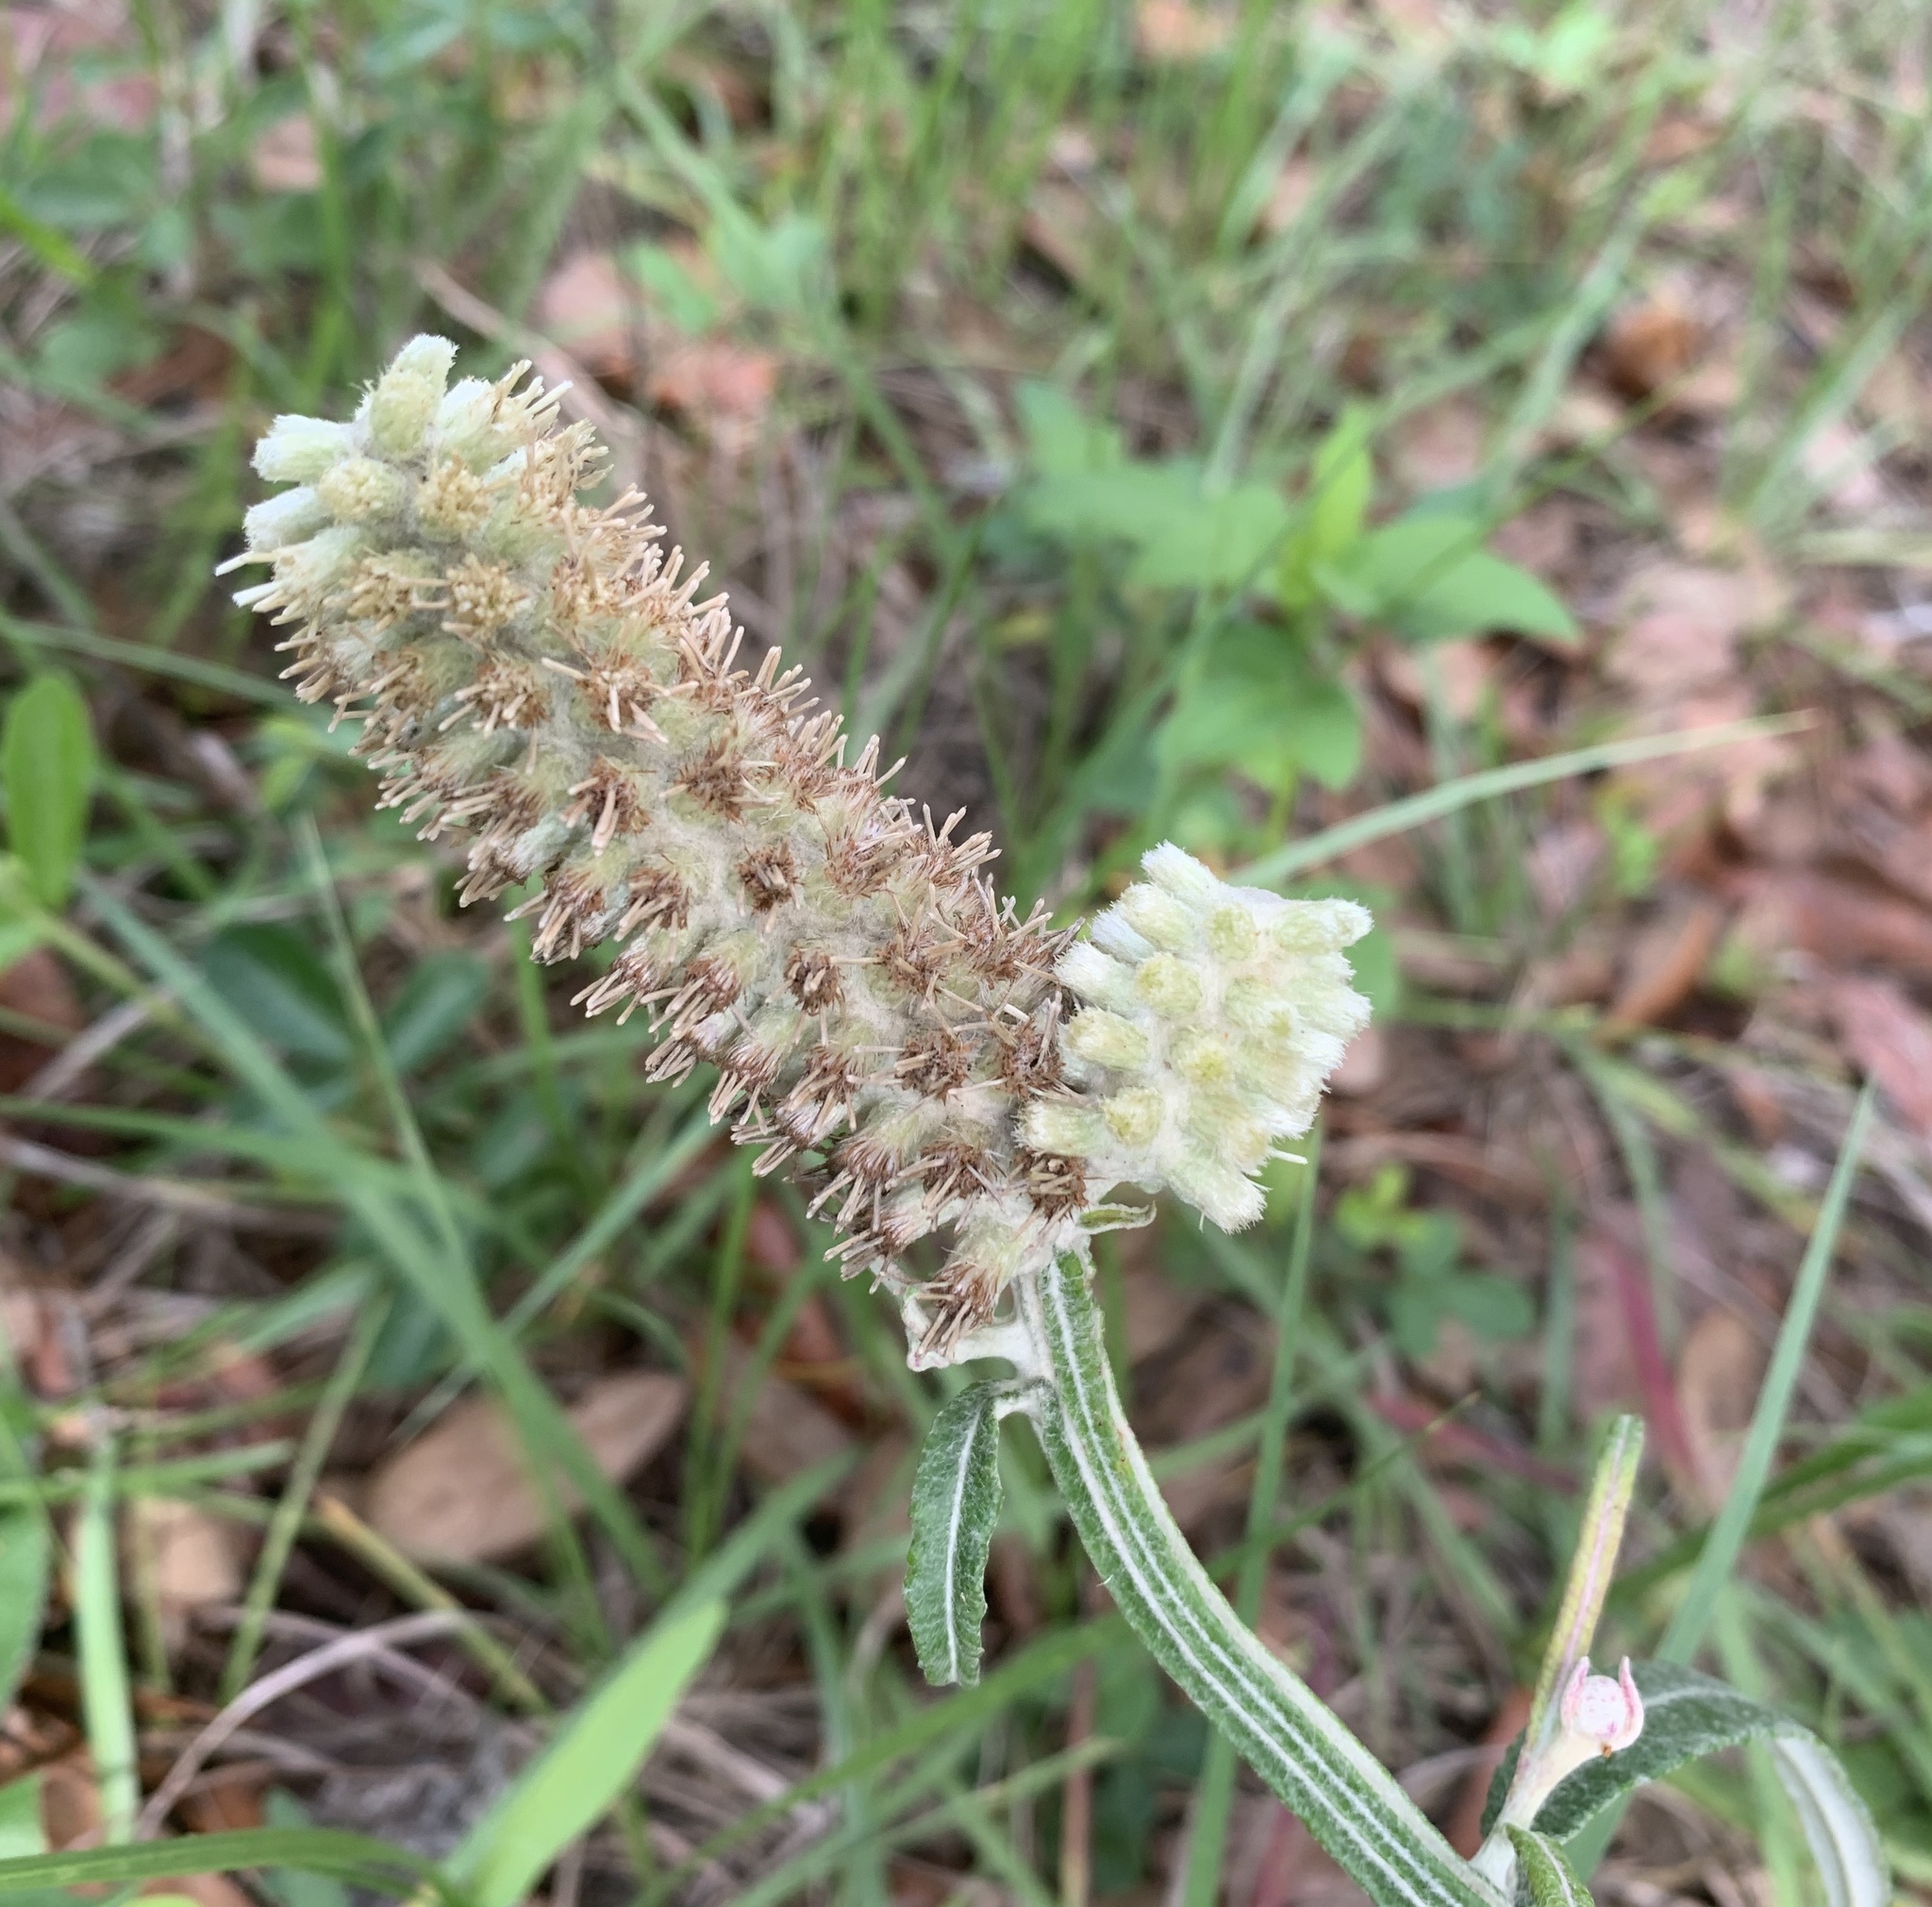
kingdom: Plantae
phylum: Tracheophyta
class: Magnoliopsida
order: Asterales
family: Asteraceae
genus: Pterocaulon
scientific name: Pterocaulon pycnostachyum
